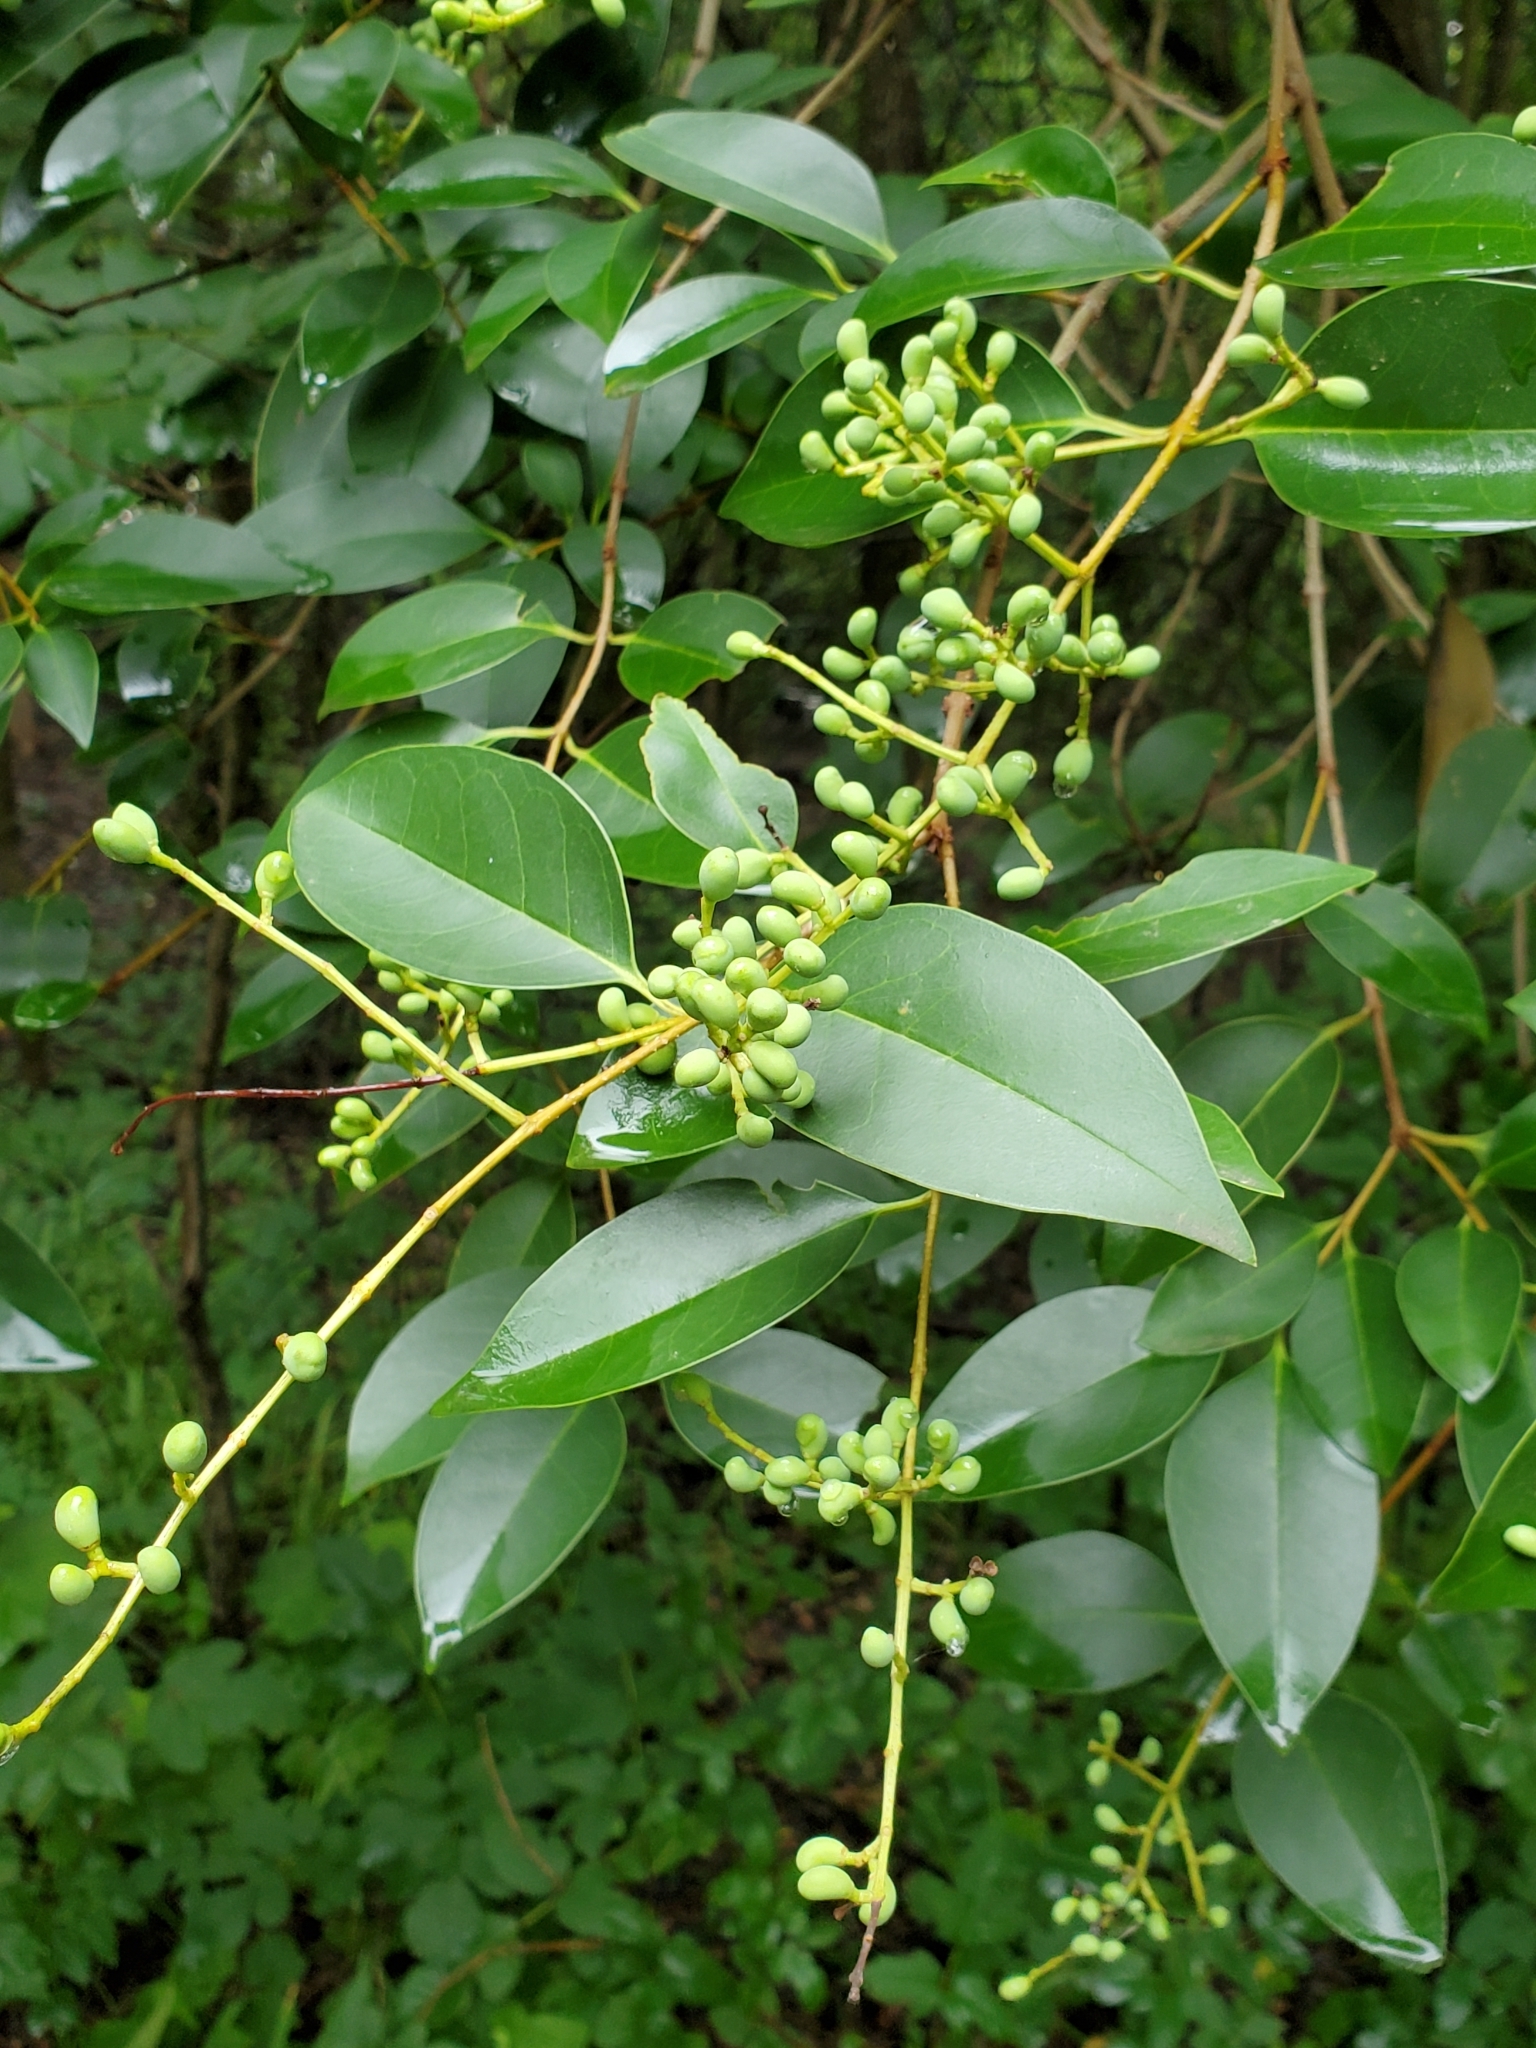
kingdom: Plantae
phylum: Tracheophyta
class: Magnoliopsida
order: Lamiales
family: Oleaceae
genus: Ligustrum
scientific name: Ligustrum lucidum
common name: Glossy privet
